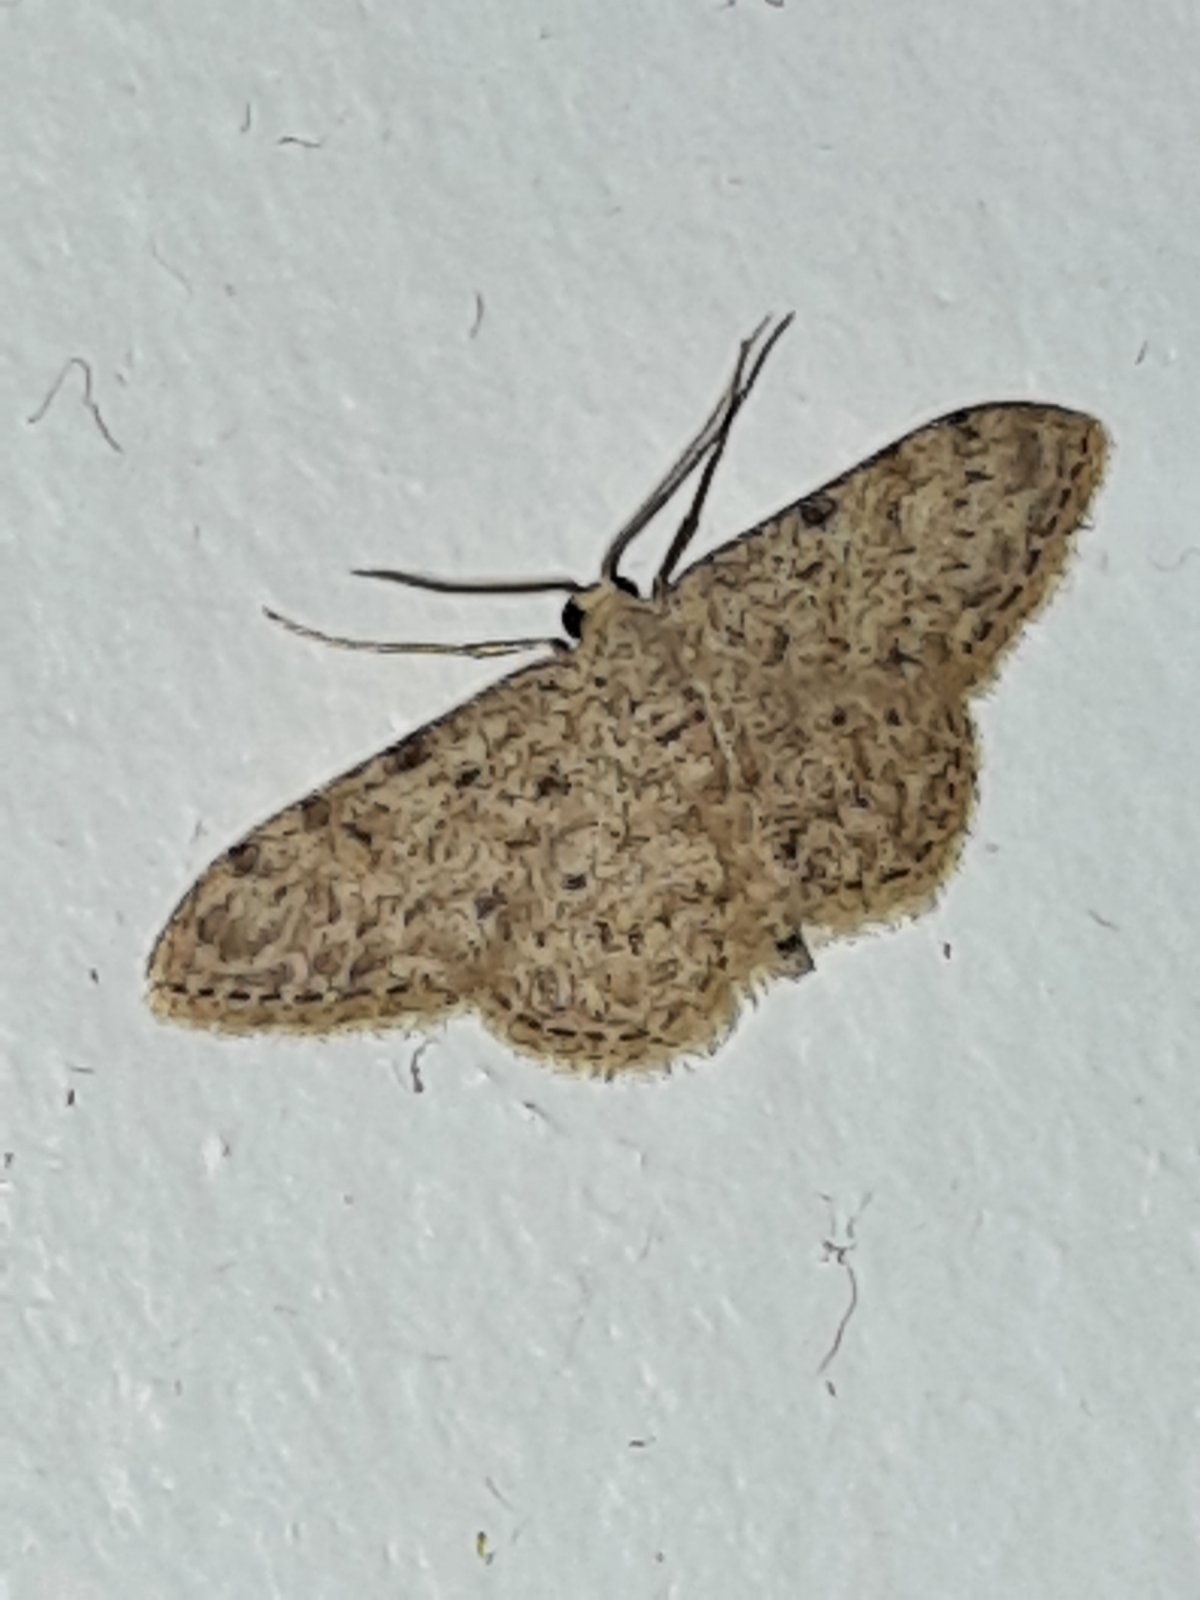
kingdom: Animalia
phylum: Arthropoda
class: Insecta
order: Lepidoptera
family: Geometridae
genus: Idaea
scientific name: Idaea cervantaria
